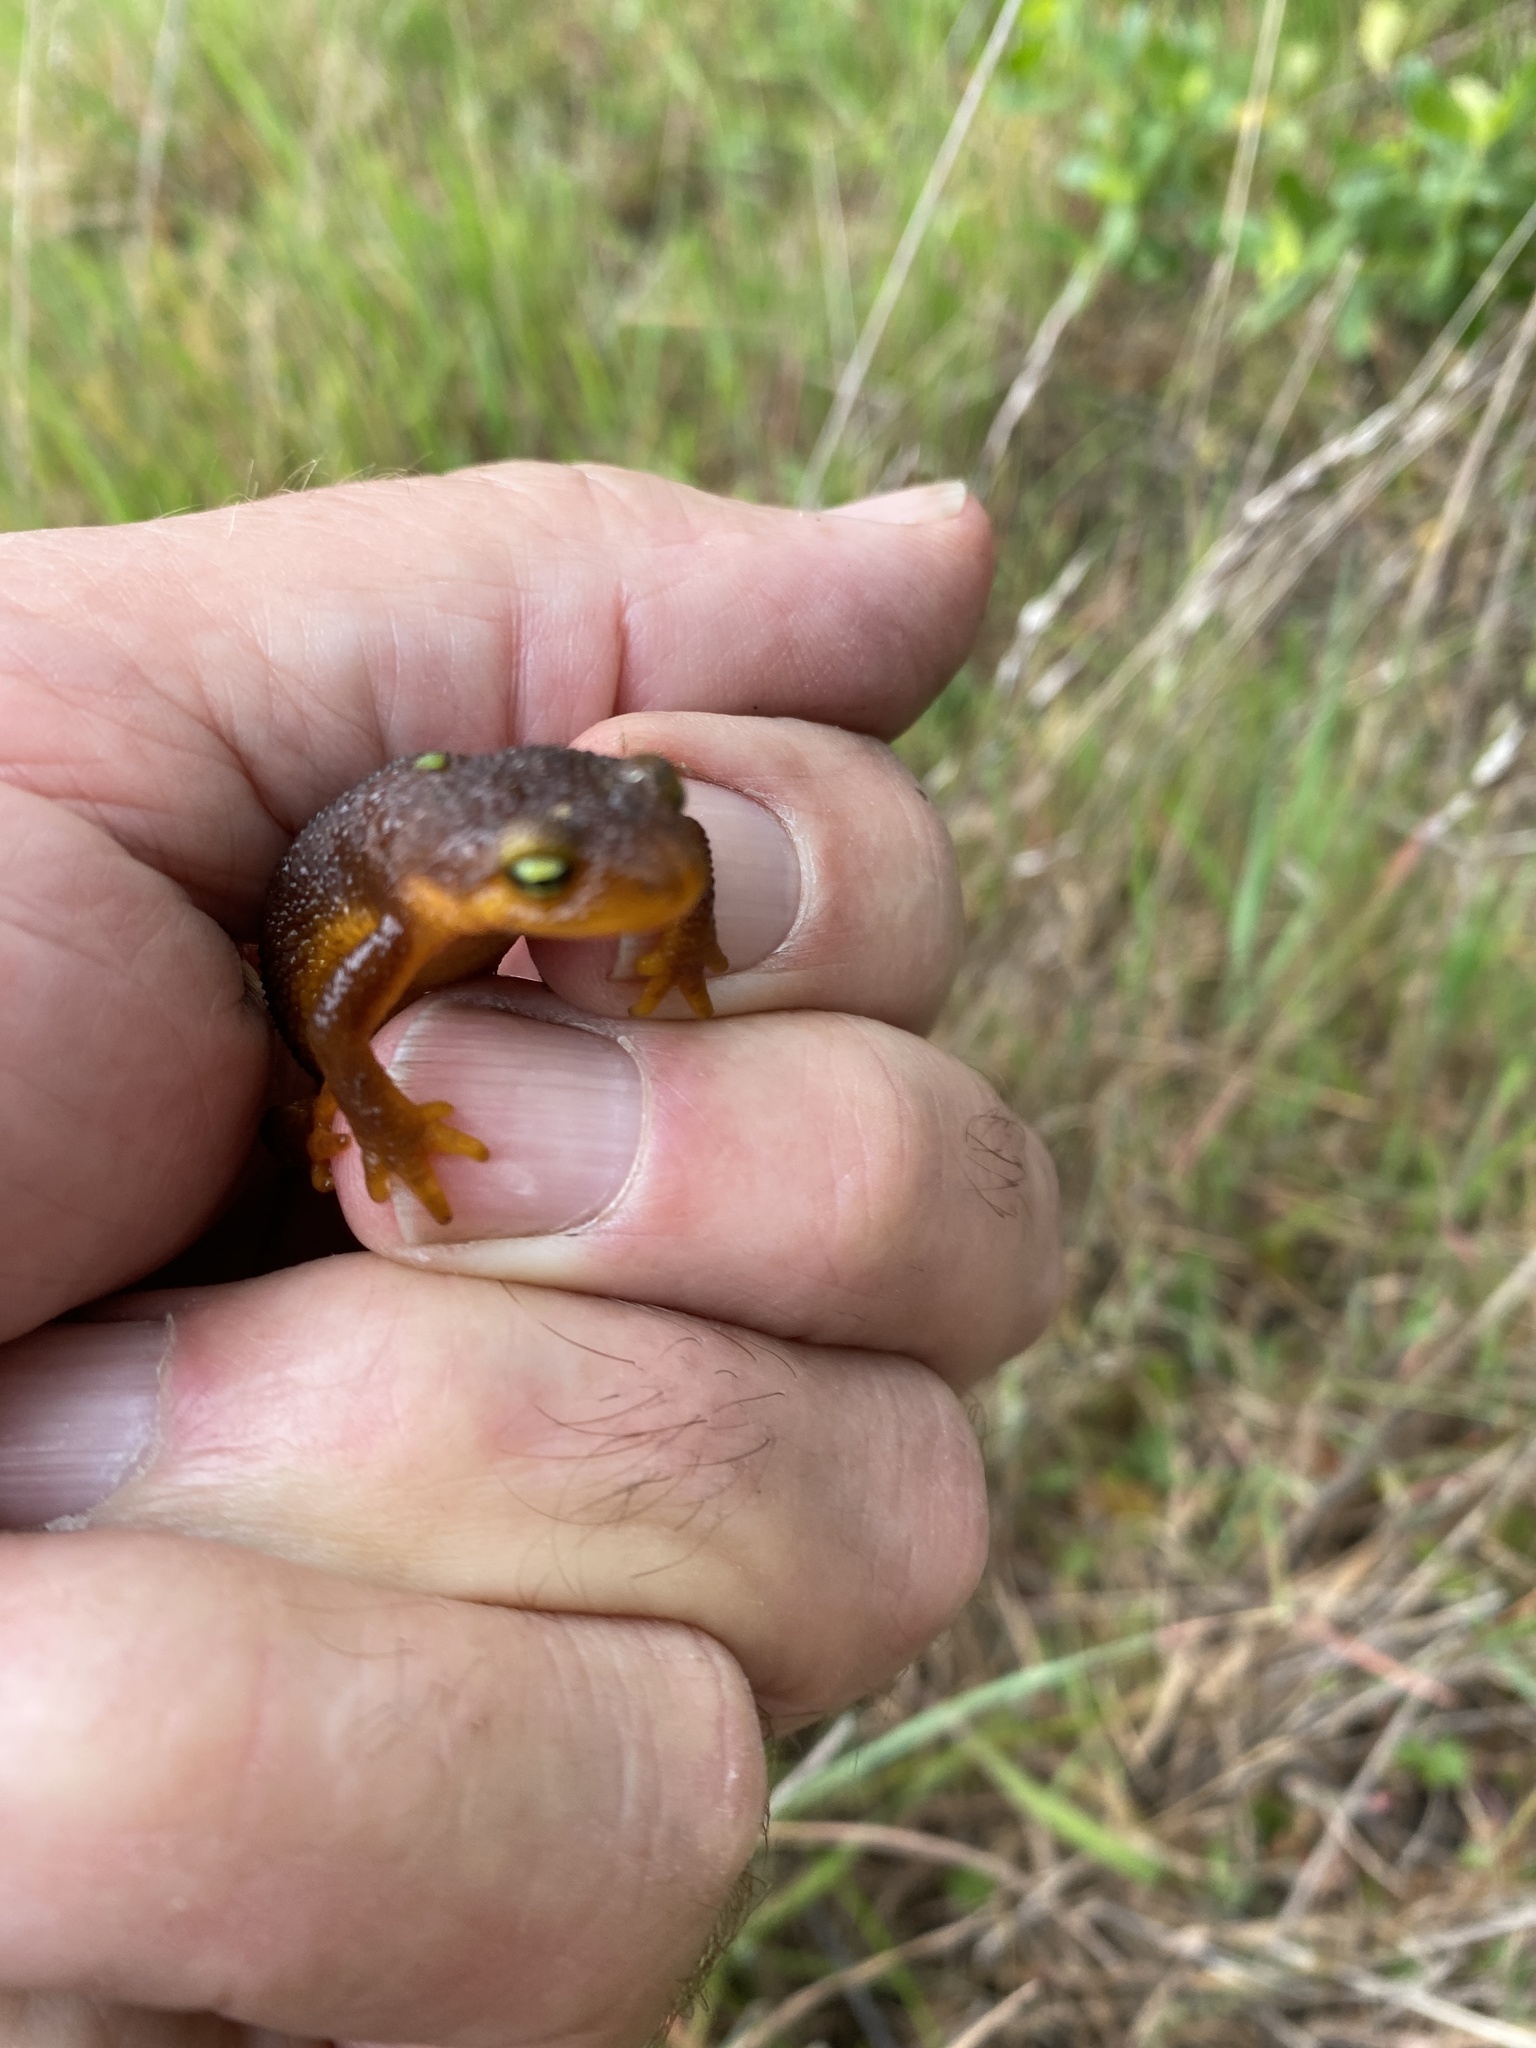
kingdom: Animalia
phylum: Chordata
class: Amphibia
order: Caudata
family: Salamandridae
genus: Taricha
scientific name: Taricha torosa
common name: California newt
